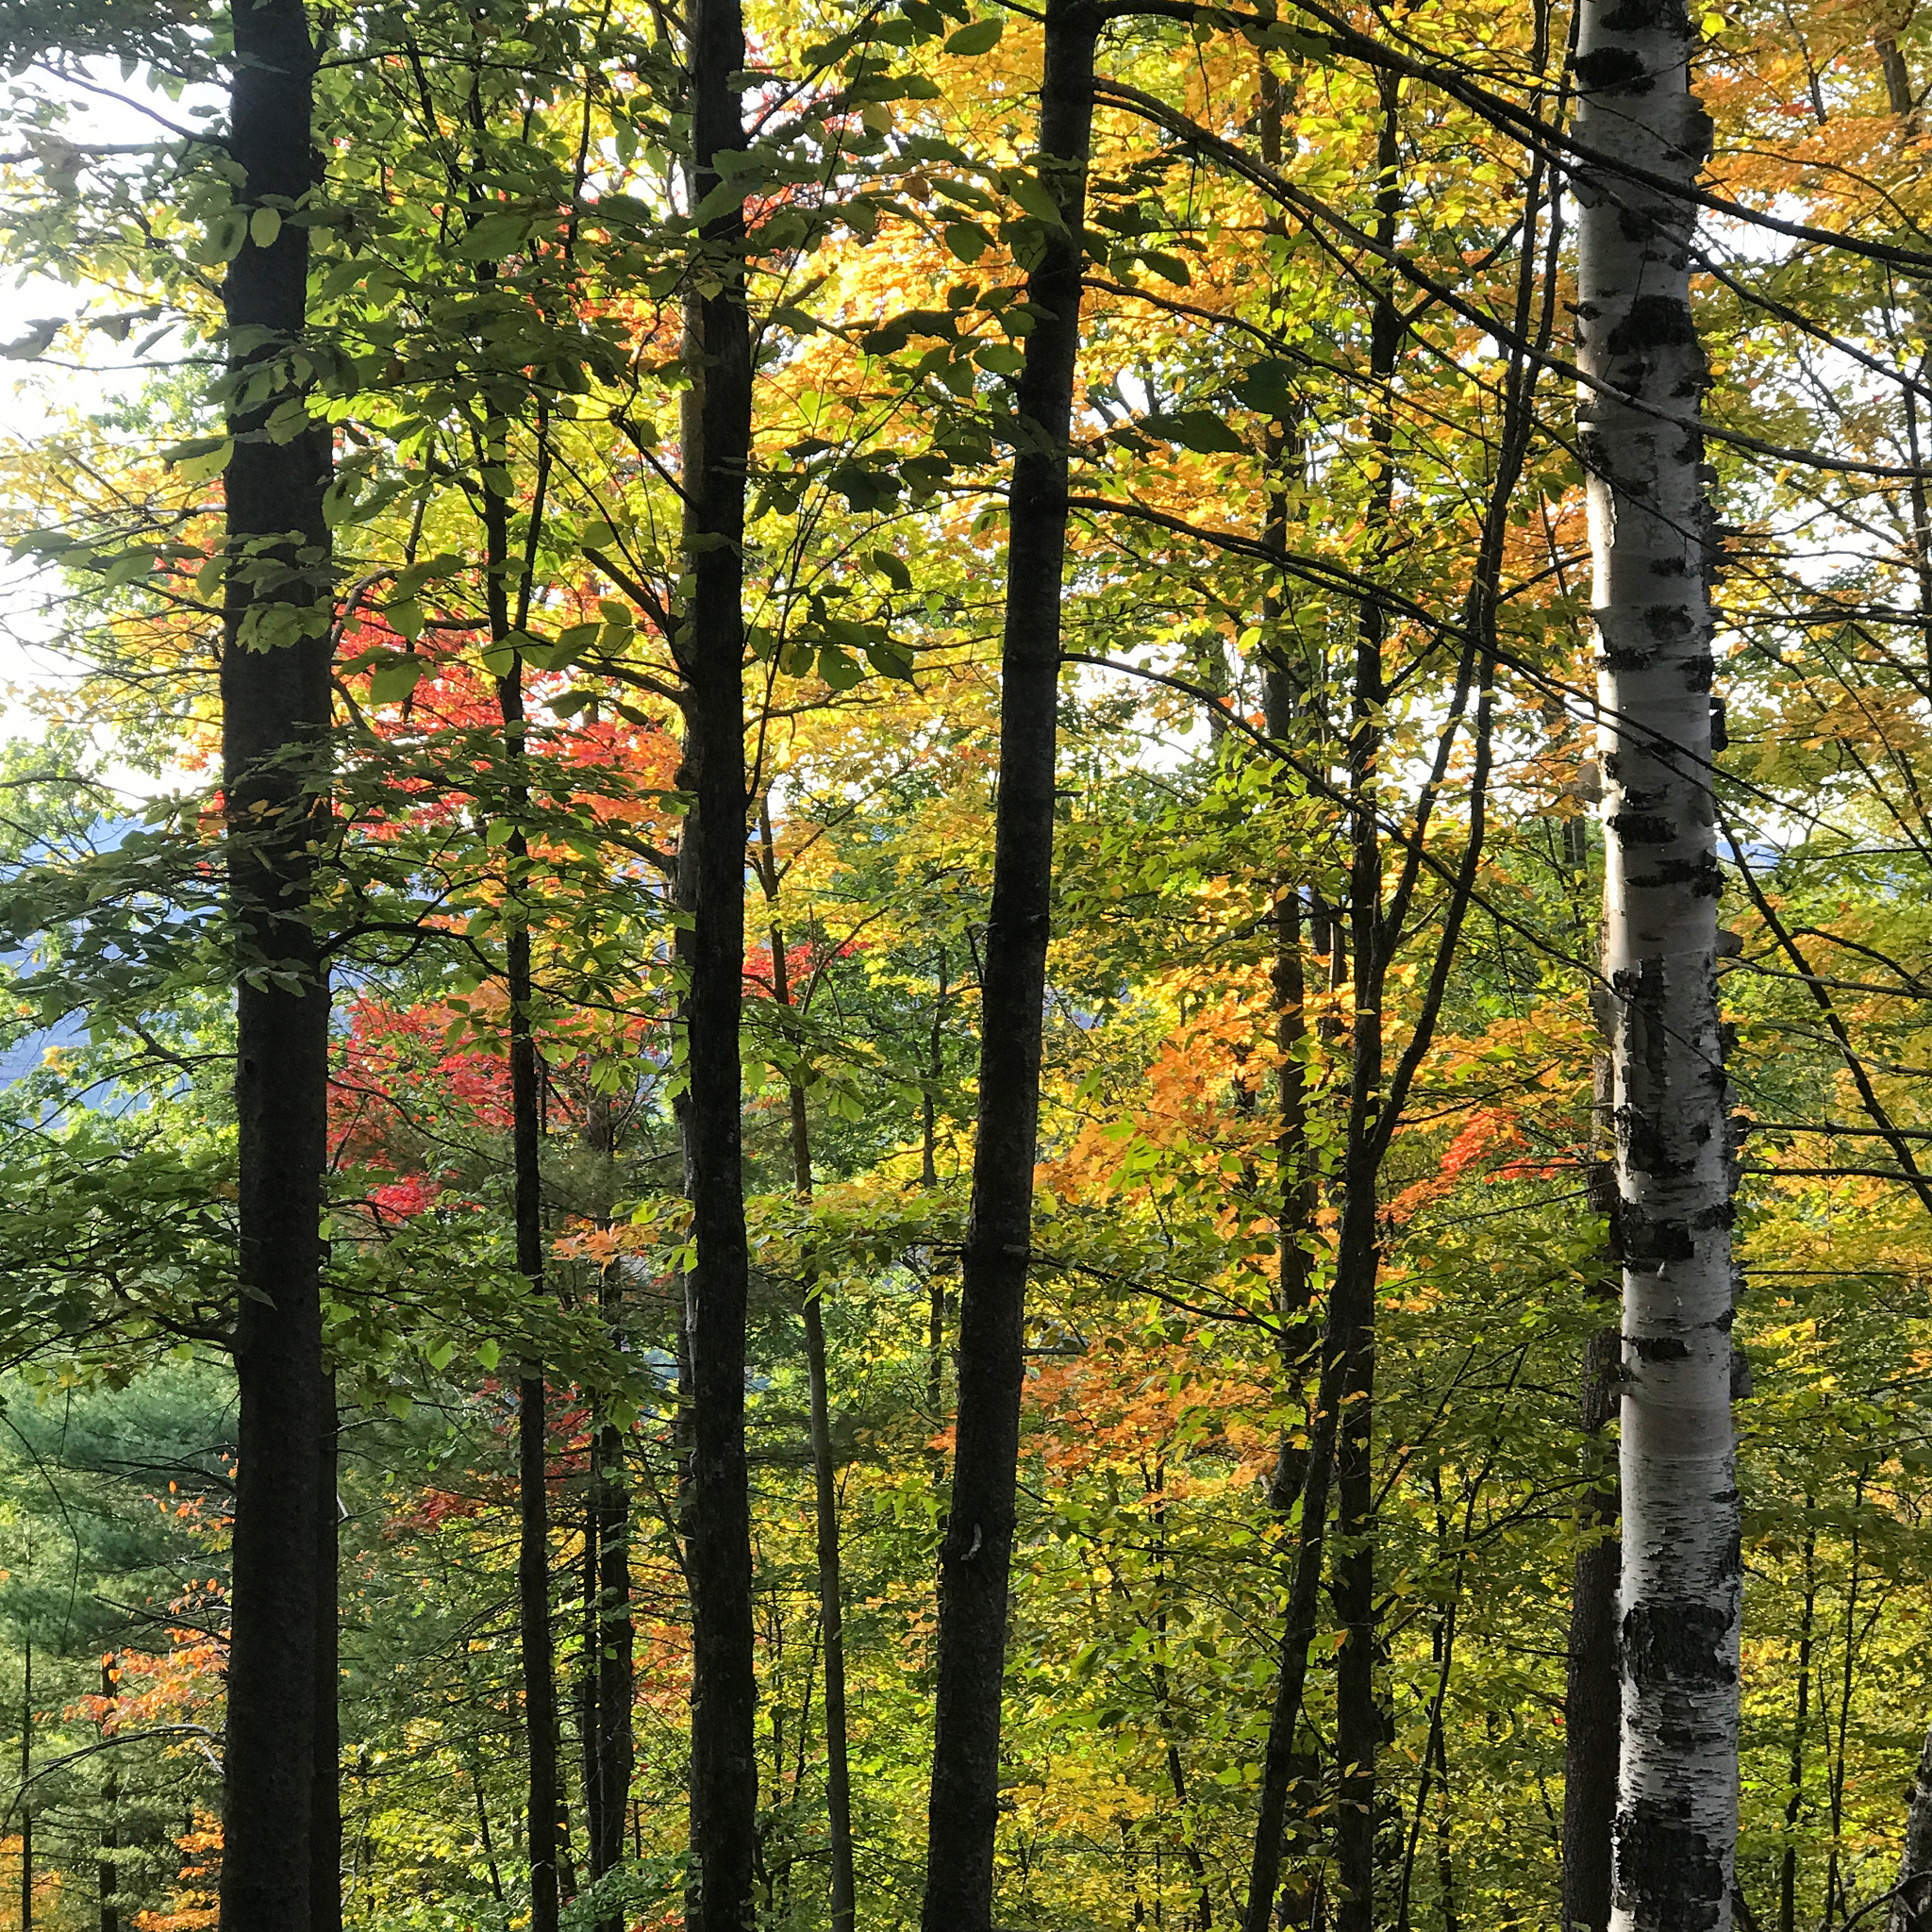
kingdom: Plantae
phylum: Tracheophyta
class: Magnoliopsida
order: Fagales
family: Betulaceae
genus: Betula
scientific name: Betula papyrifera
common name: Paper birch
